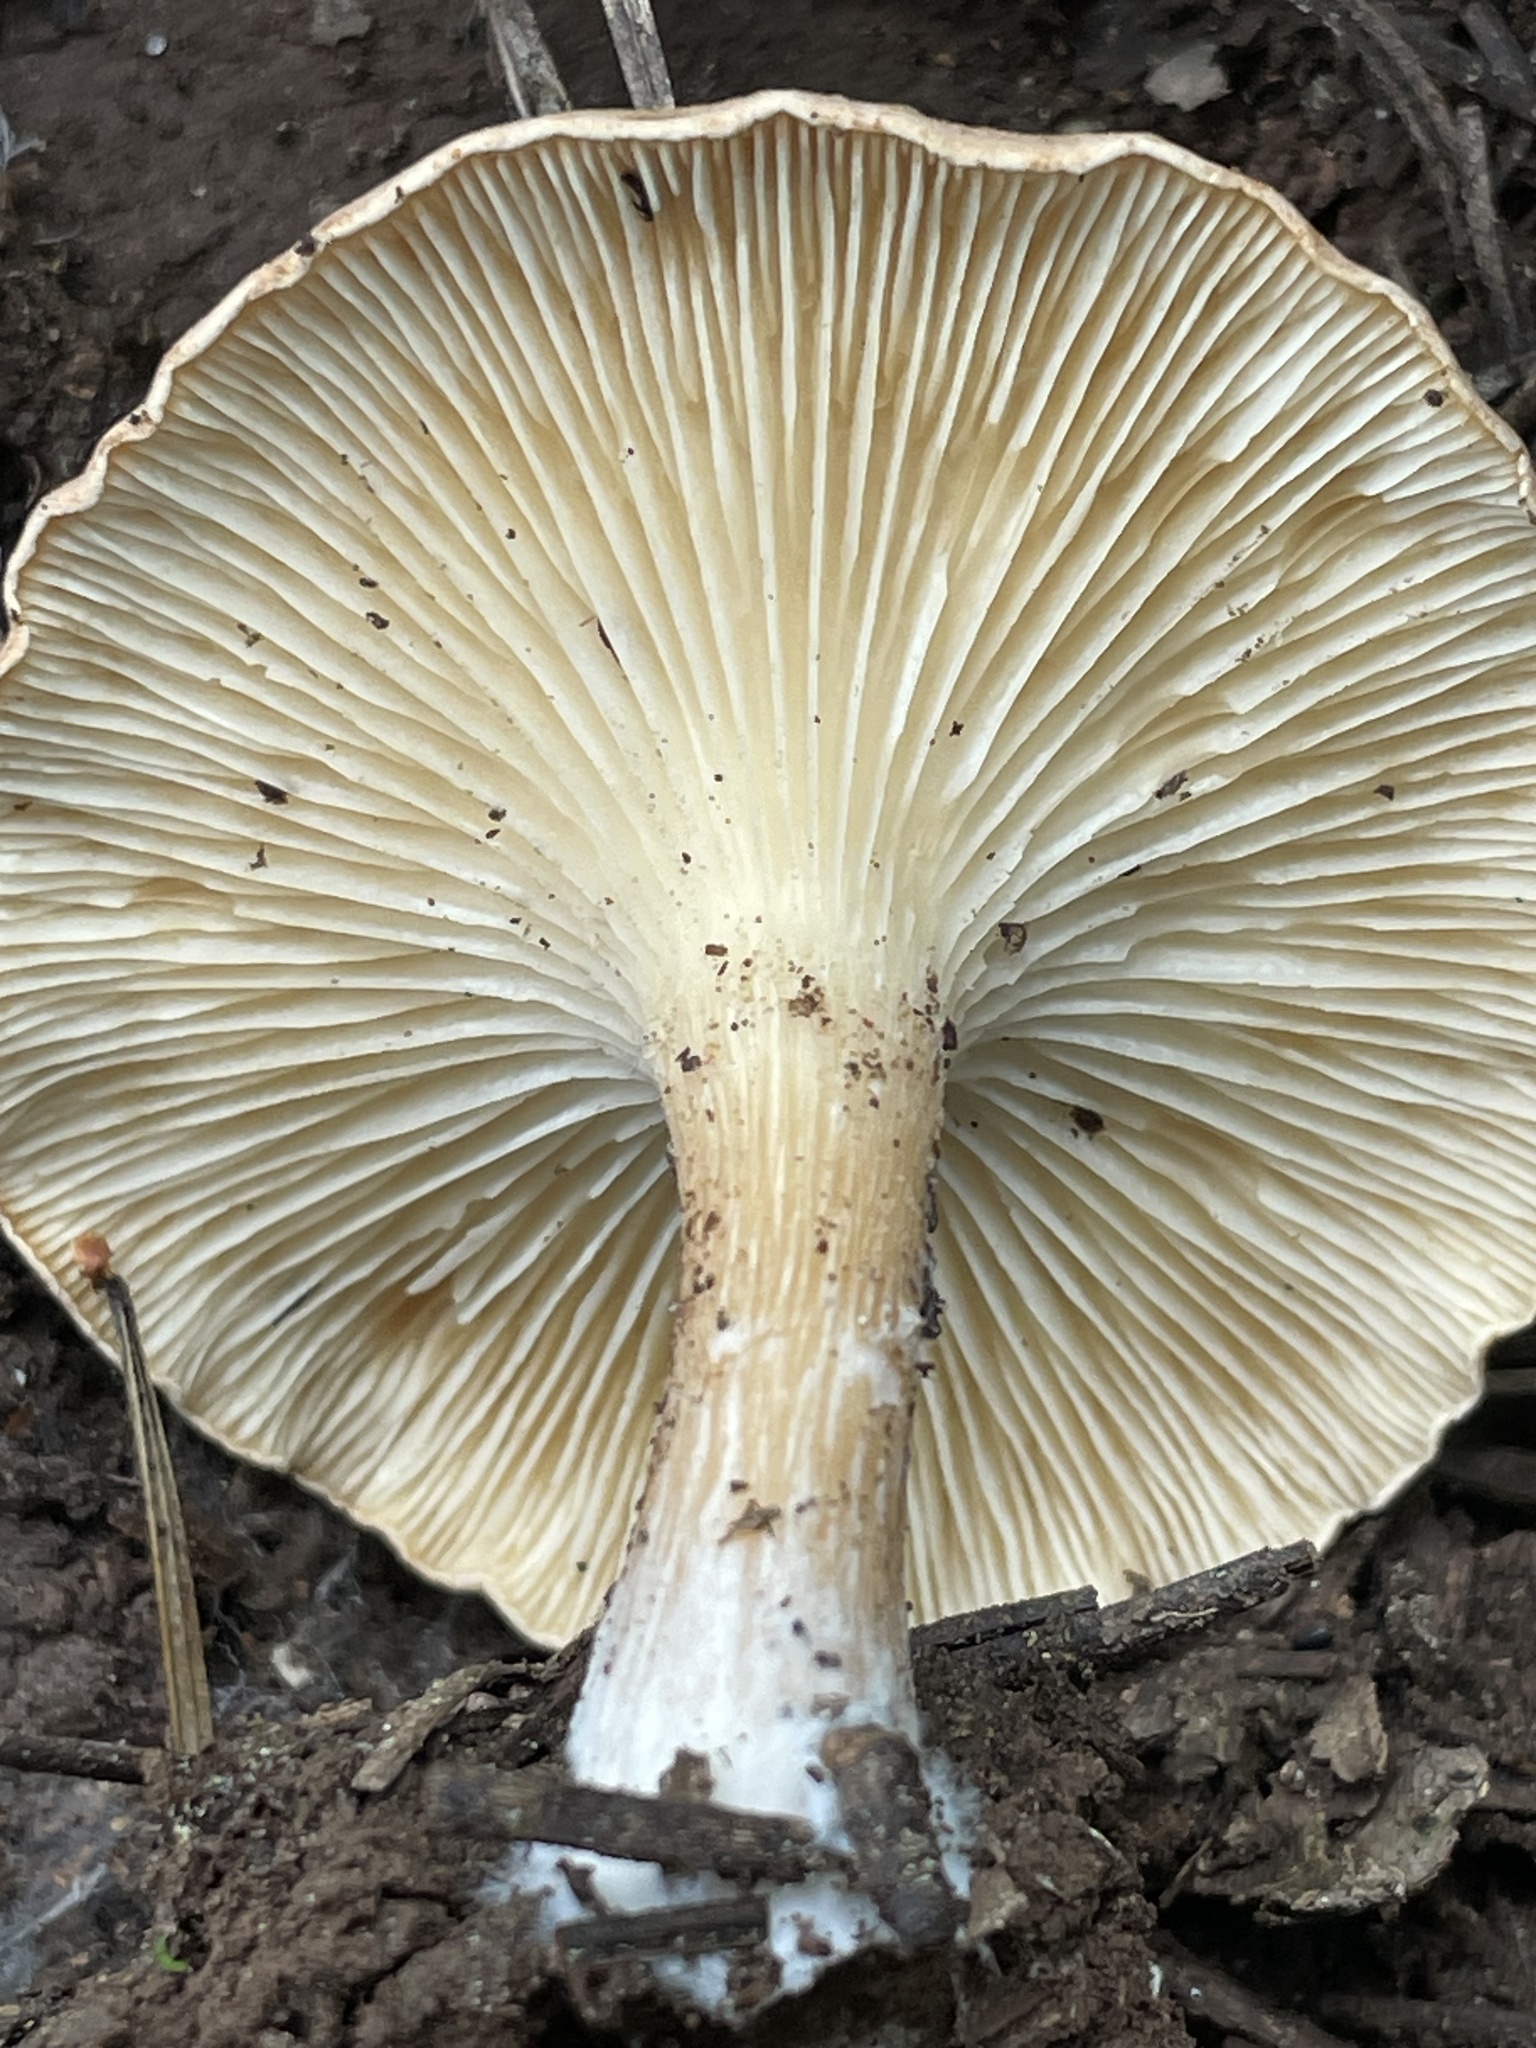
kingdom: Fungi
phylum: Basidiomycota
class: Agaricomycetes
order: Agaricales
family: Tricholomataceae
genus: Infundibulicybe
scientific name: Infundibulicybe squamulosa
